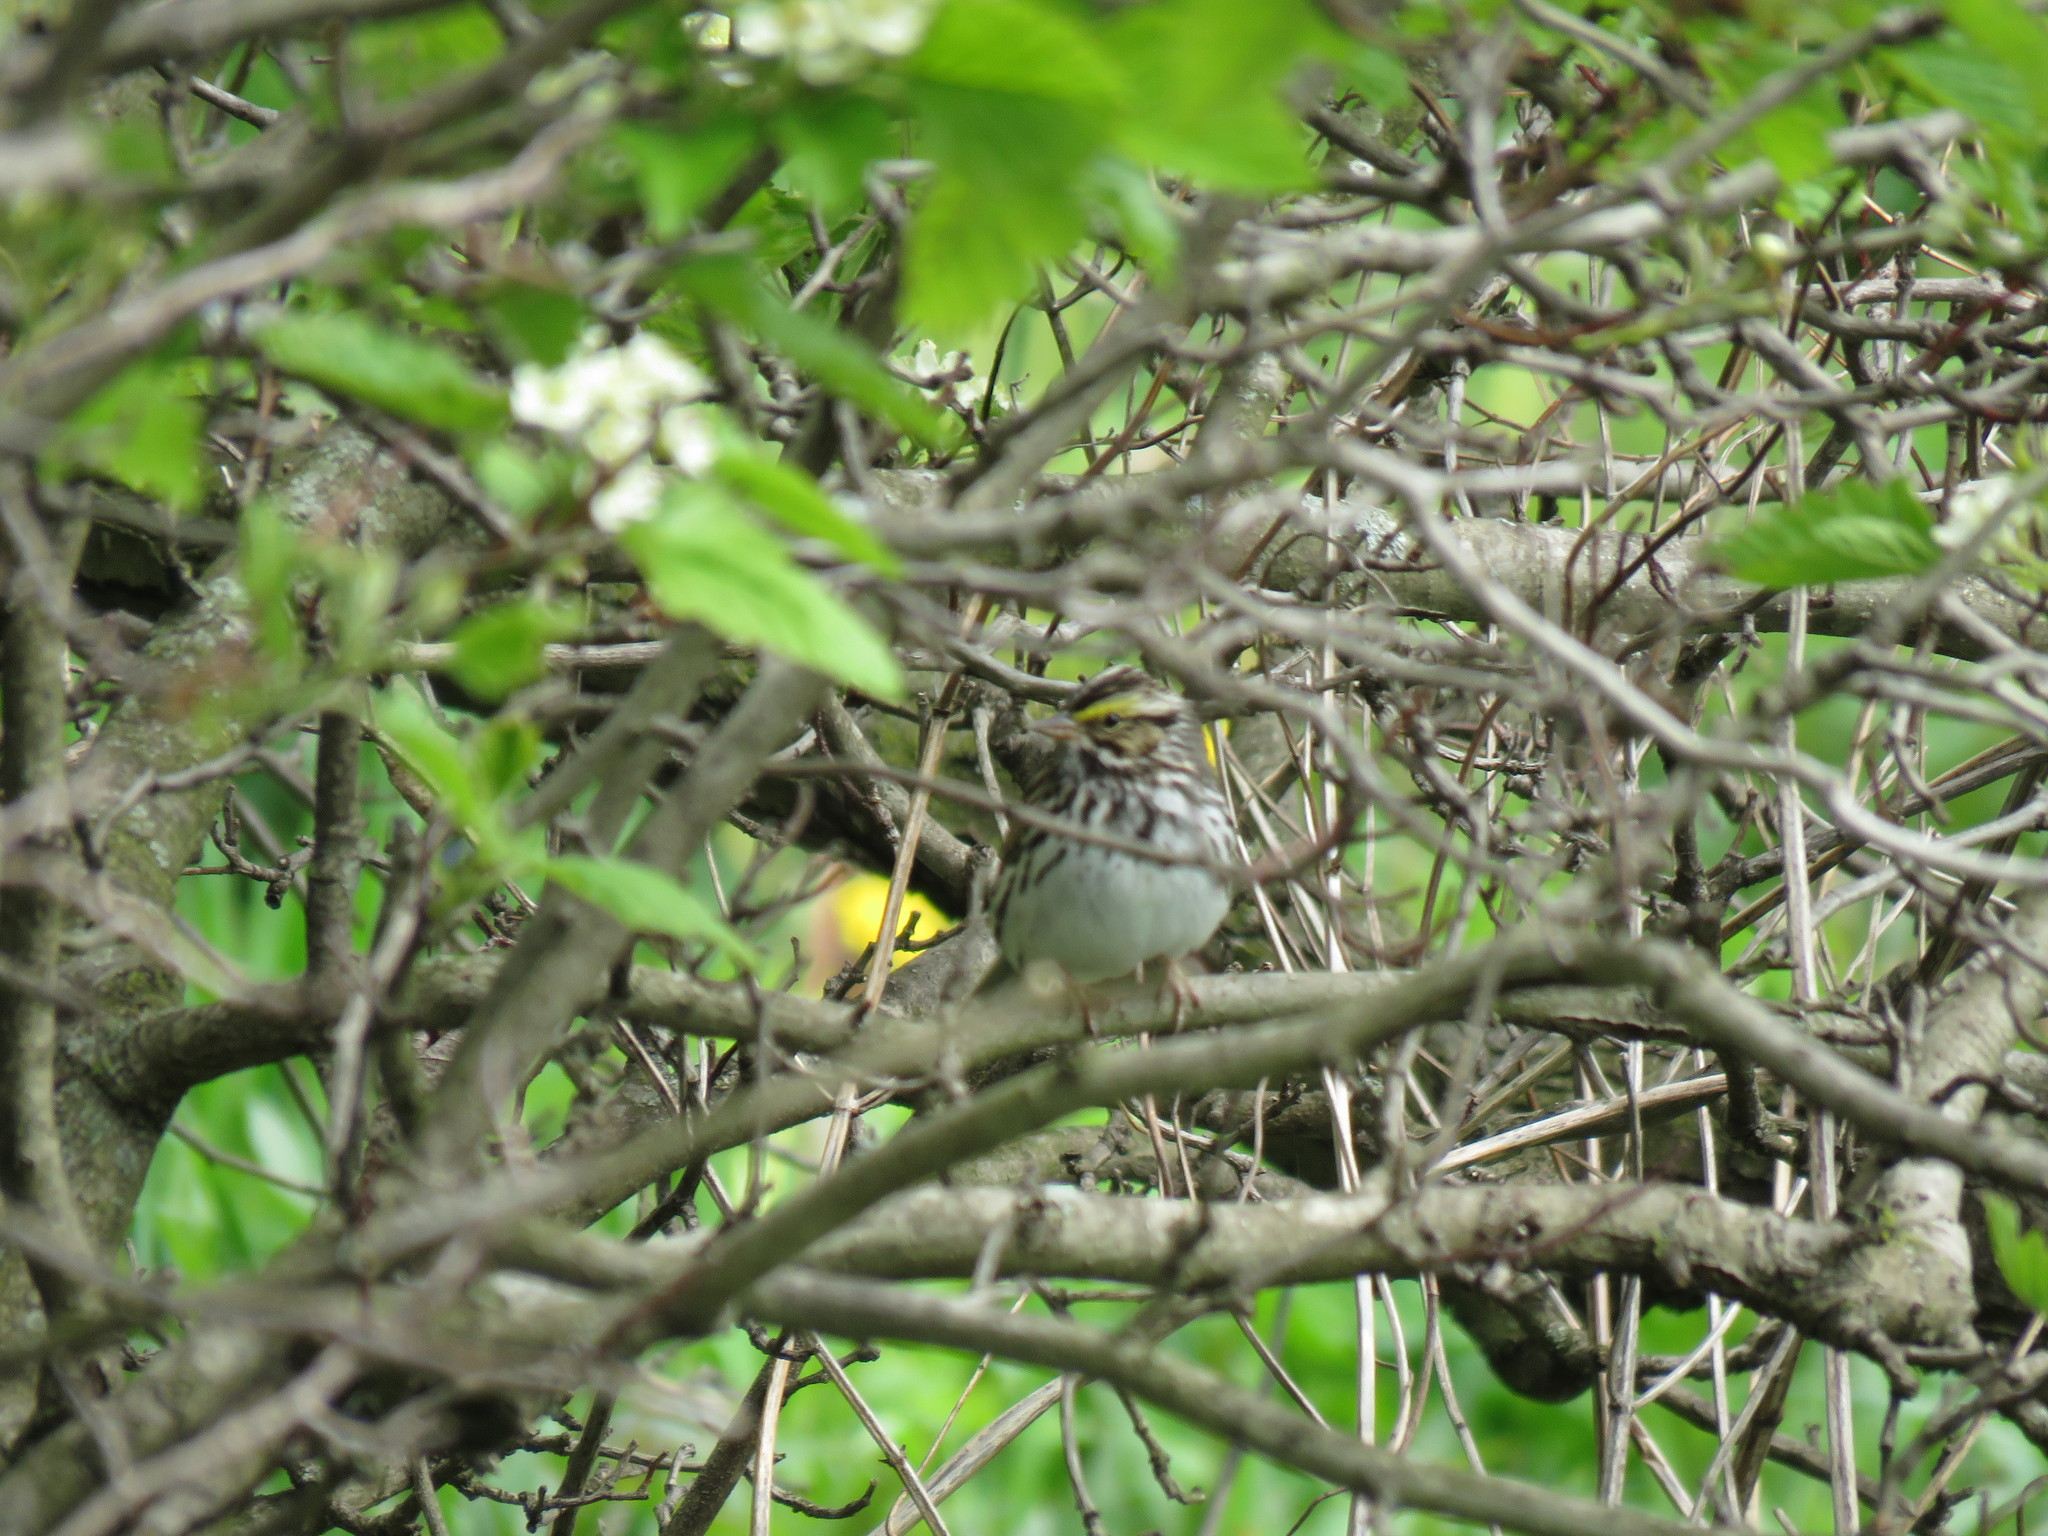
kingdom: Animalia
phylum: Chordata
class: Aves
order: Passeriformes
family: Passerellidae
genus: Passerculus
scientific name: Passerculus sandwichensis
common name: Savannah sparrow
